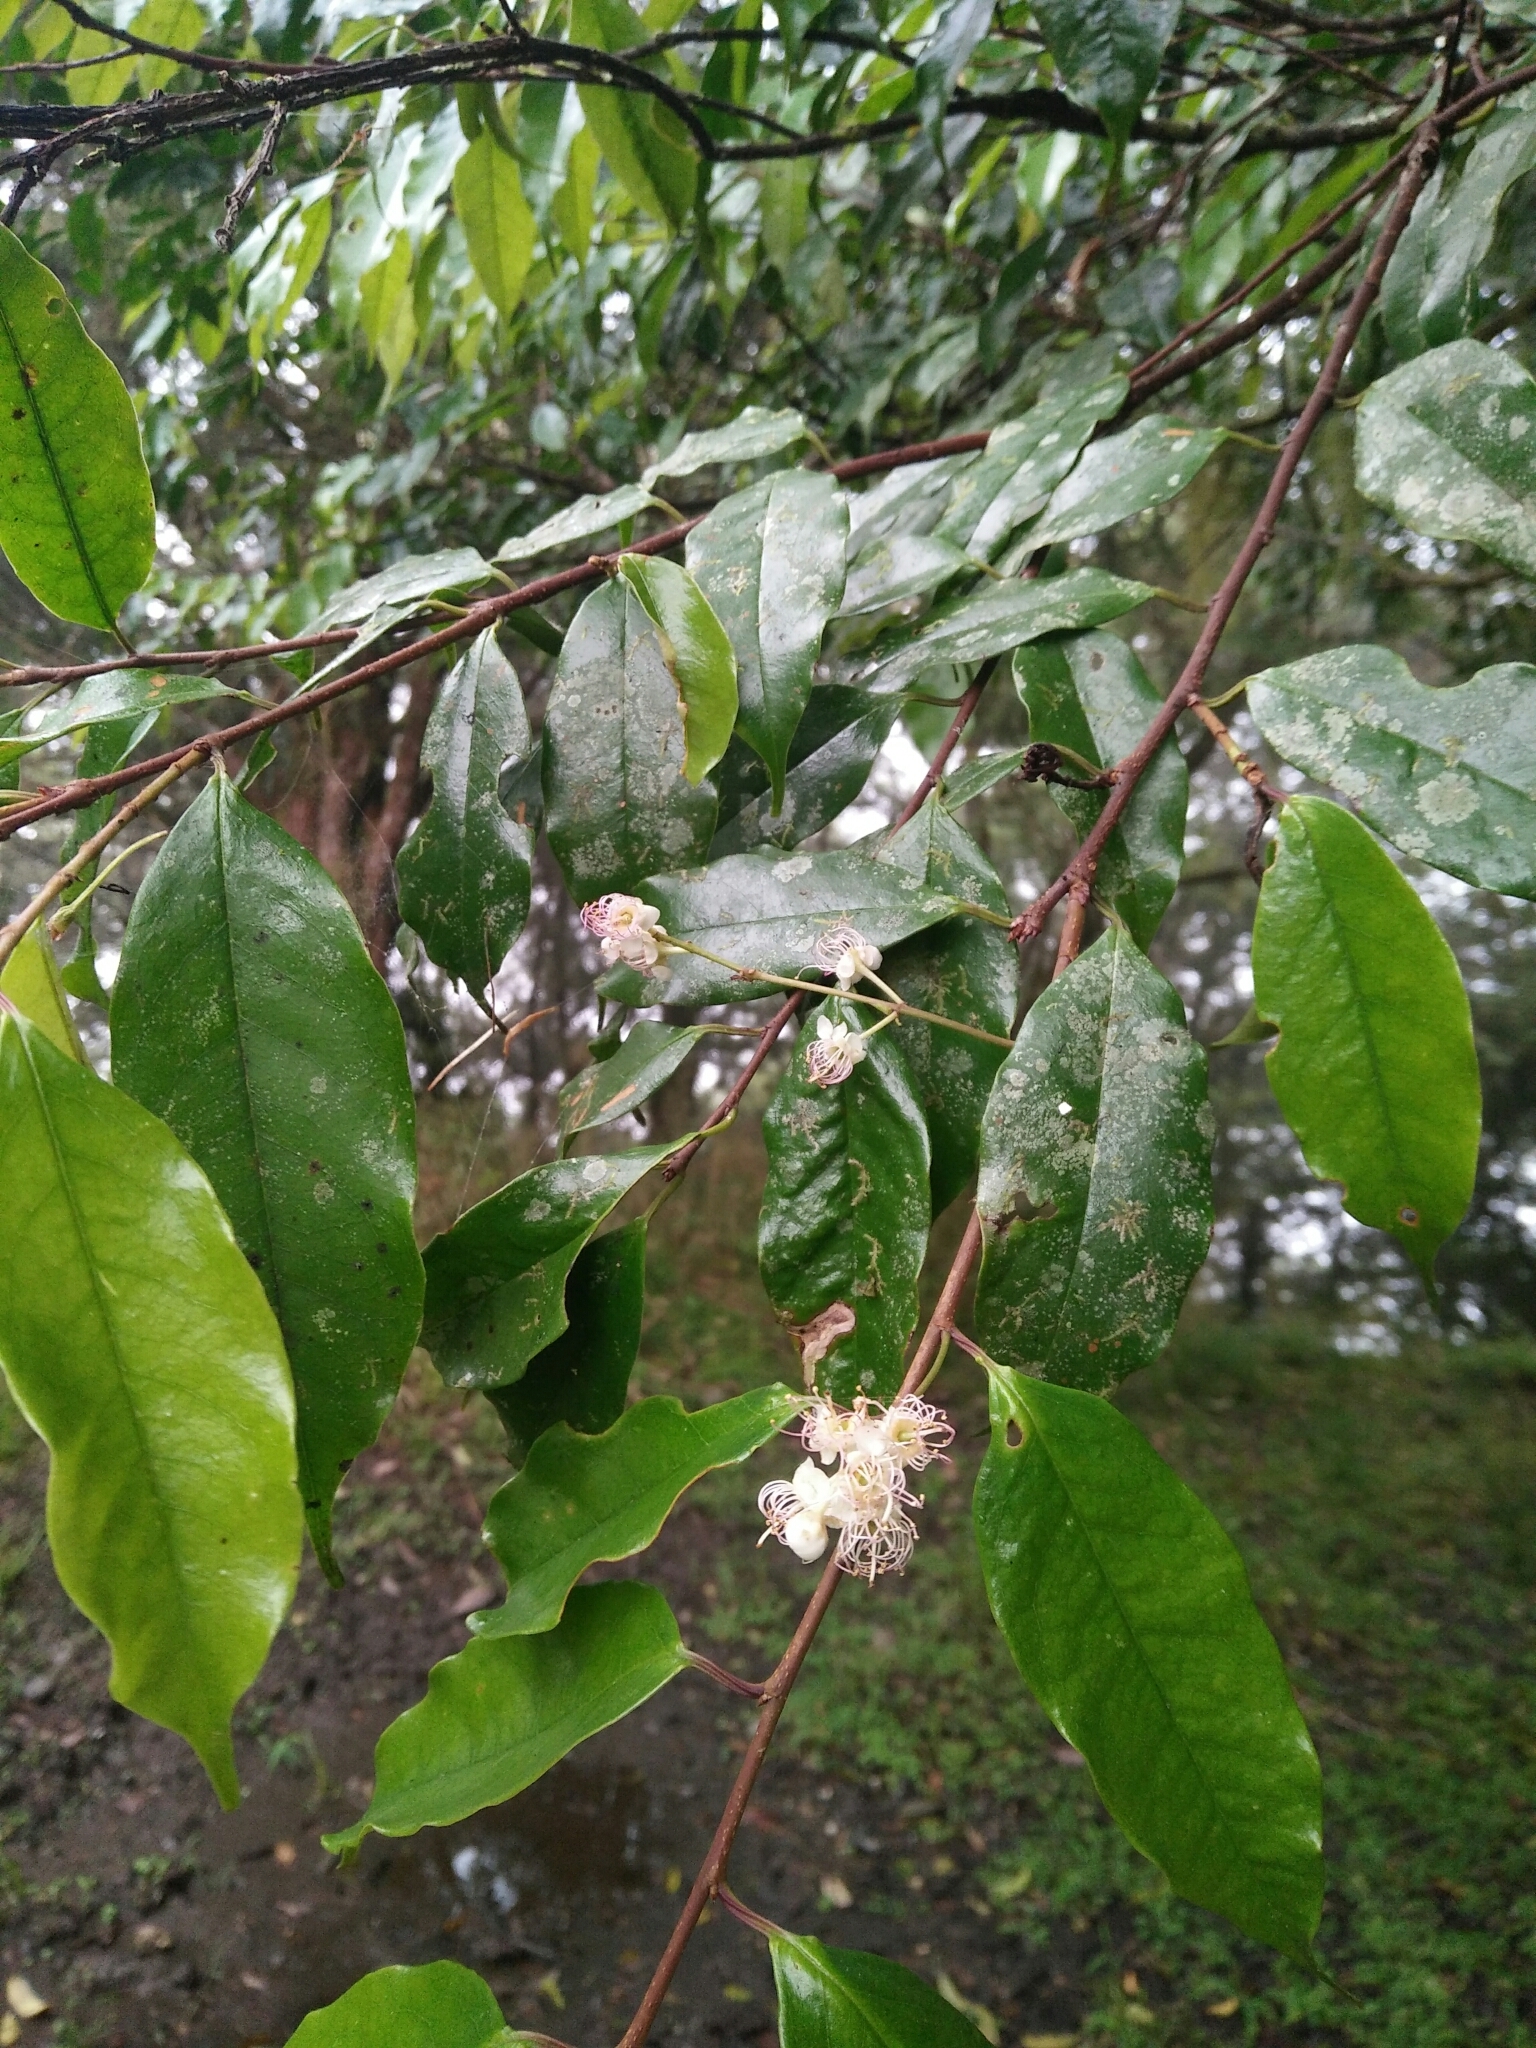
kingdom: Plantae
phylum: Tracheophyta
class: Magnoliopsida
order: Rosales
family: Rosaceae
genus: Prunus
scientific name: Prunus phaeosticta
